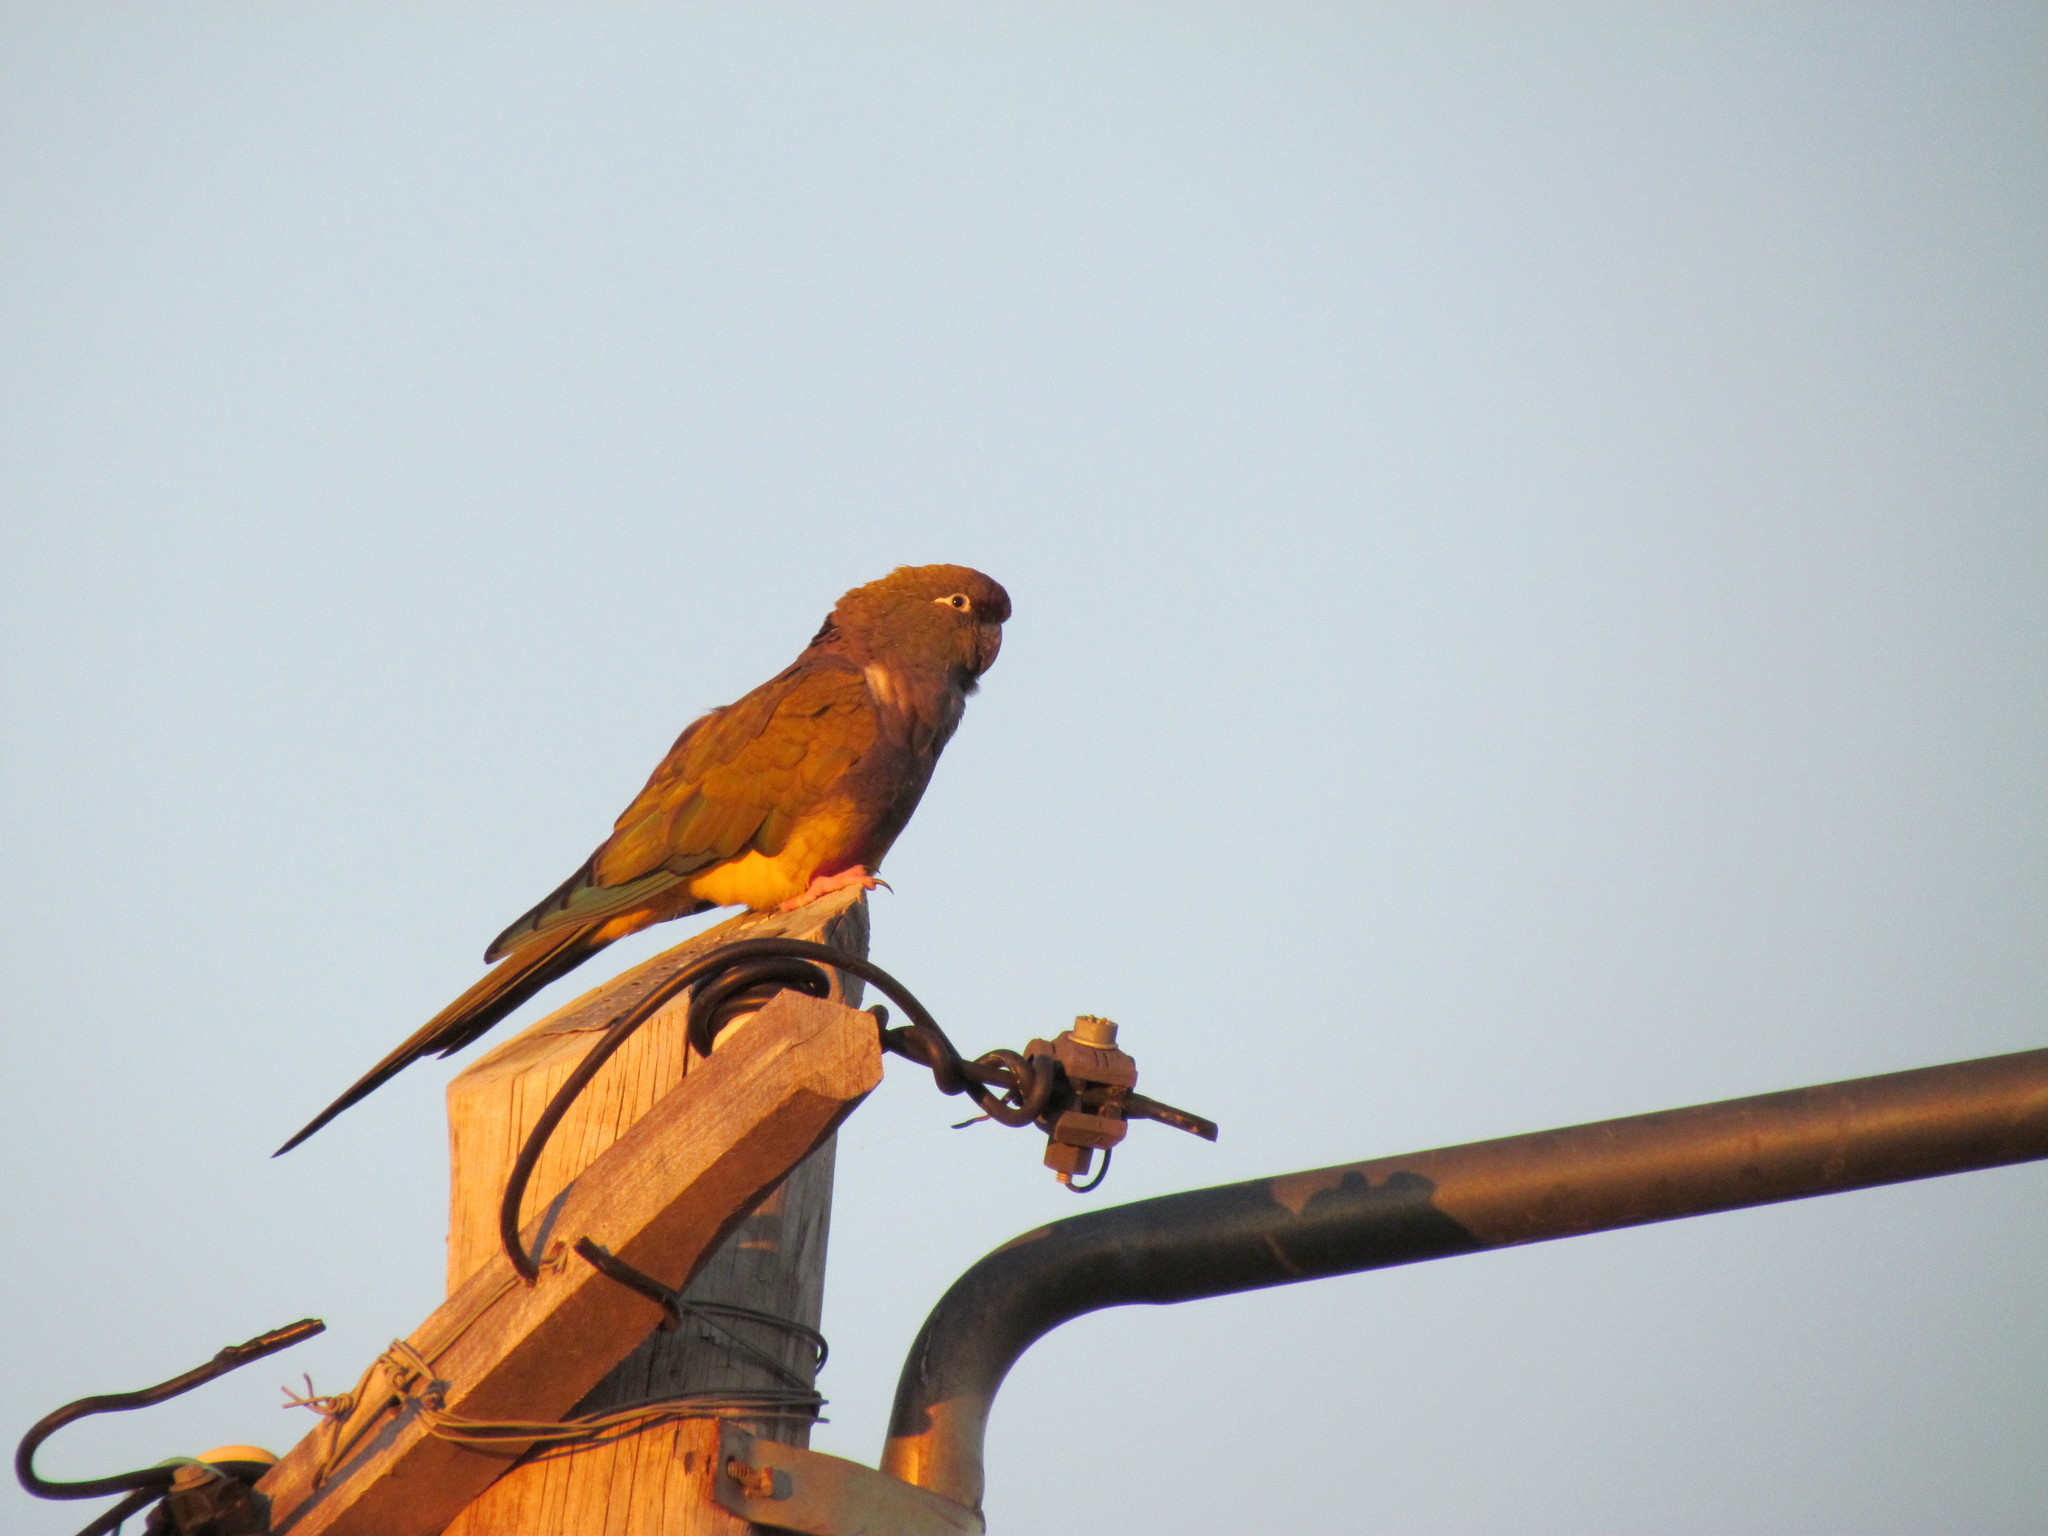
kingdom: Animalia
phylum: Chordata
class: Aves
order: Psittaciformes
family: Psittacidae
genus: Cyanoliseus
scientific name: Cyanoliseus patagonus
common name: Burrowing parrot
